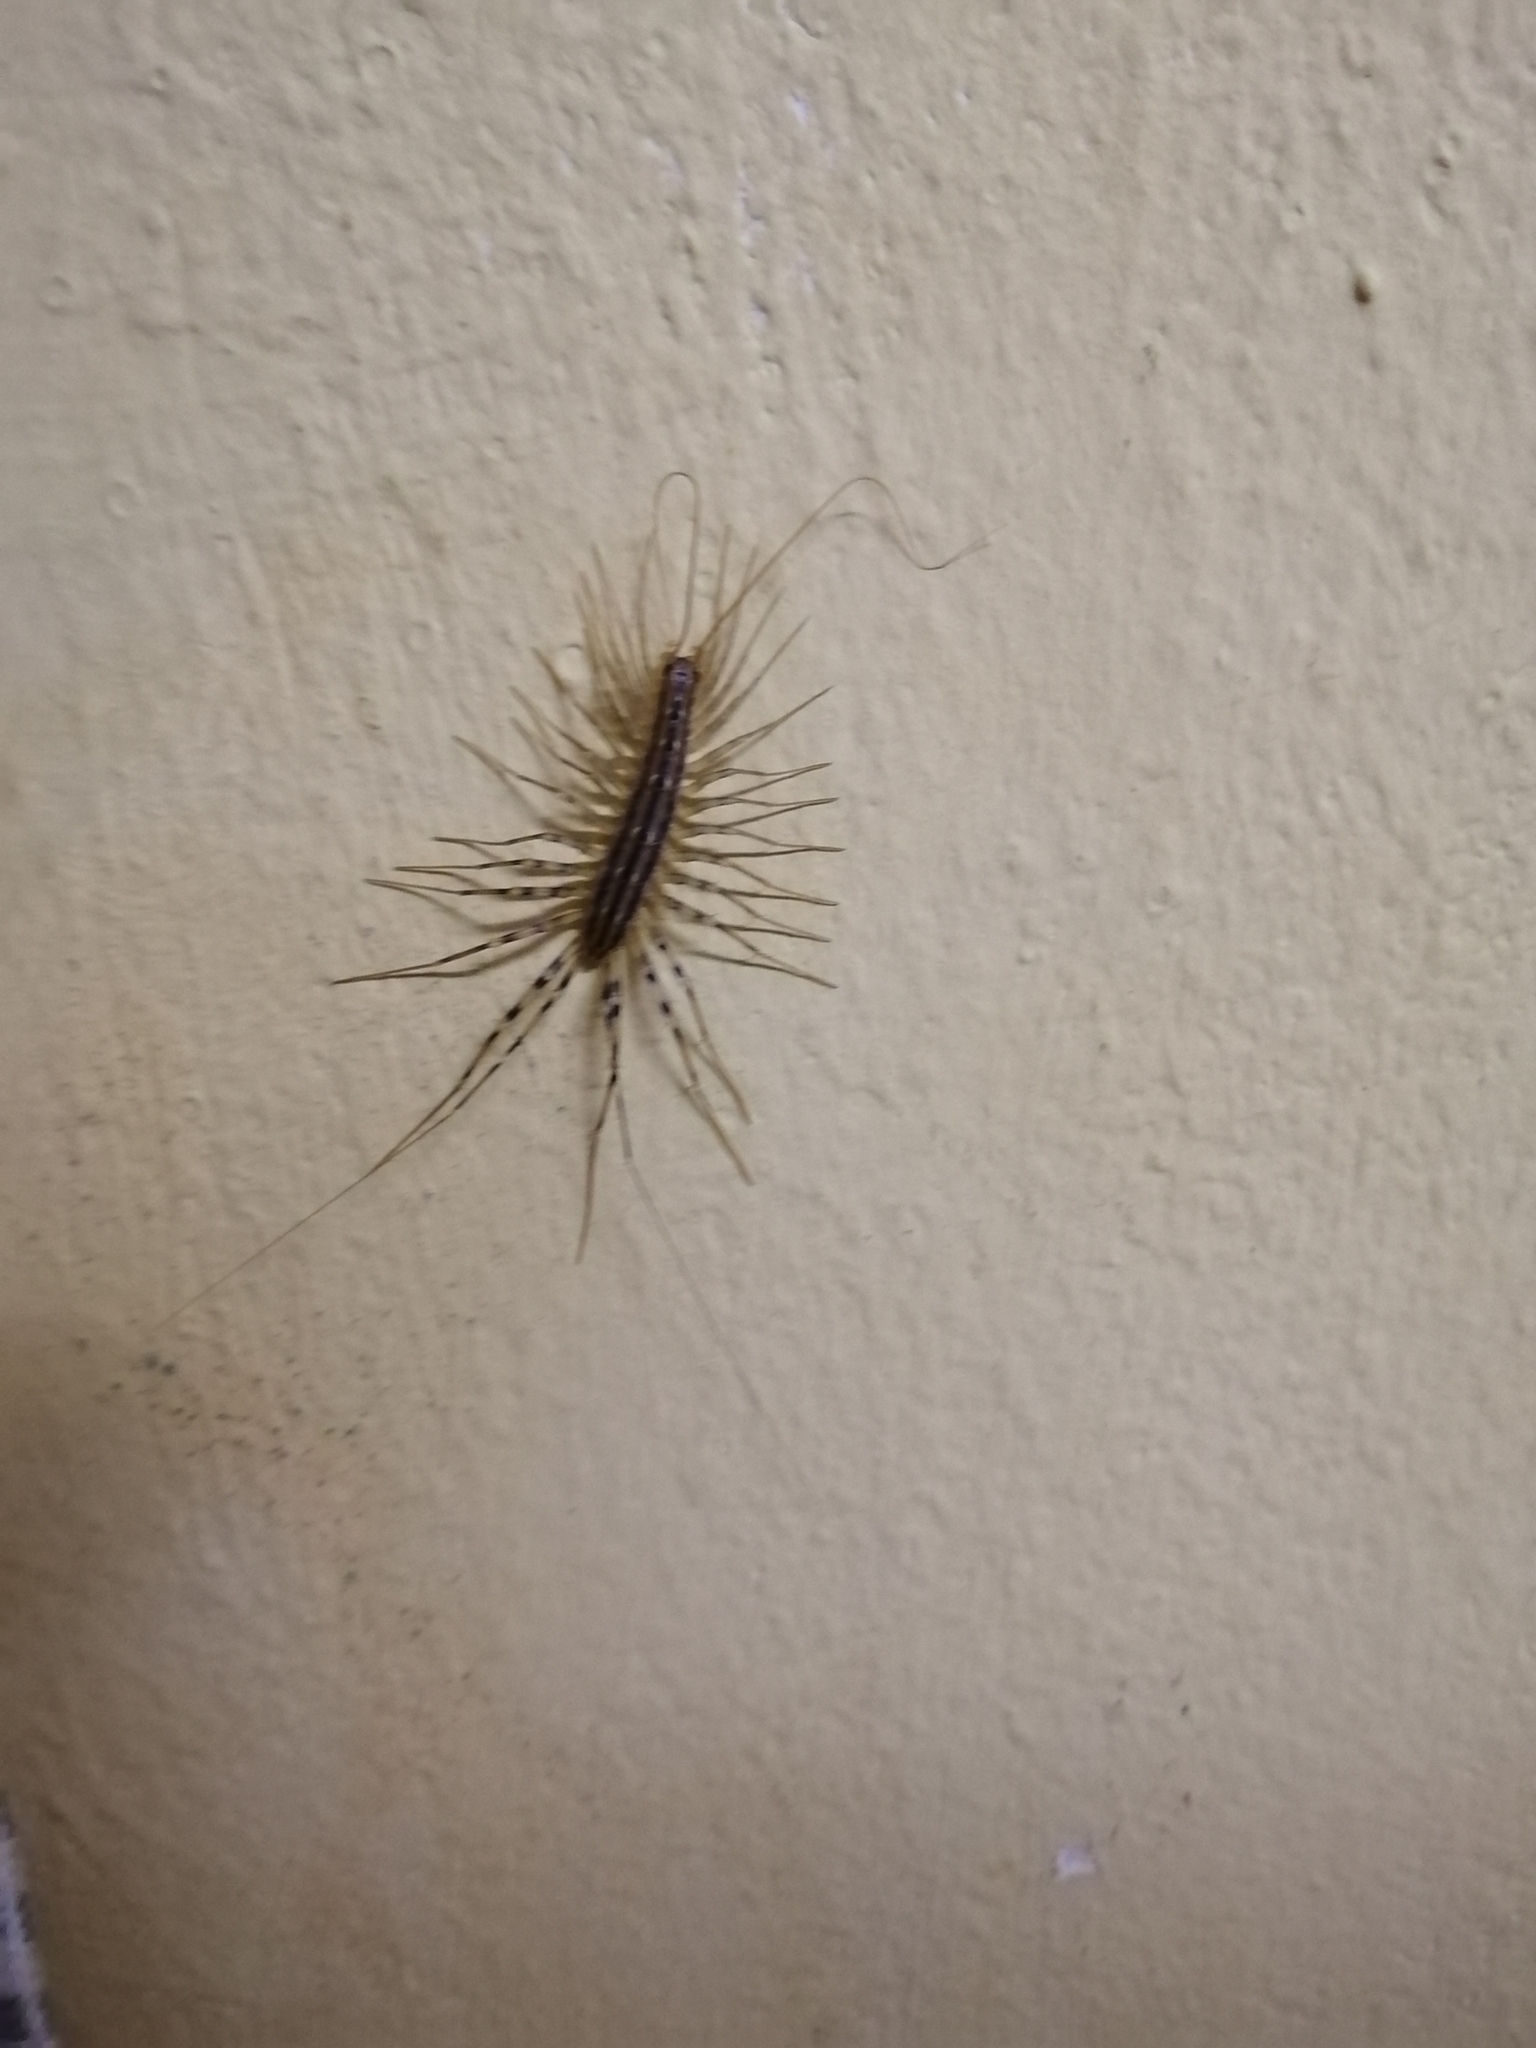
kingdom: Animalia
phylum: Arthropoda
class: Chilopoda
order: Scutigeromorpha
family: Scutigeridae
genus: Scutigera
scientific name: Scutigera coleoptrata
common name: House centipede
